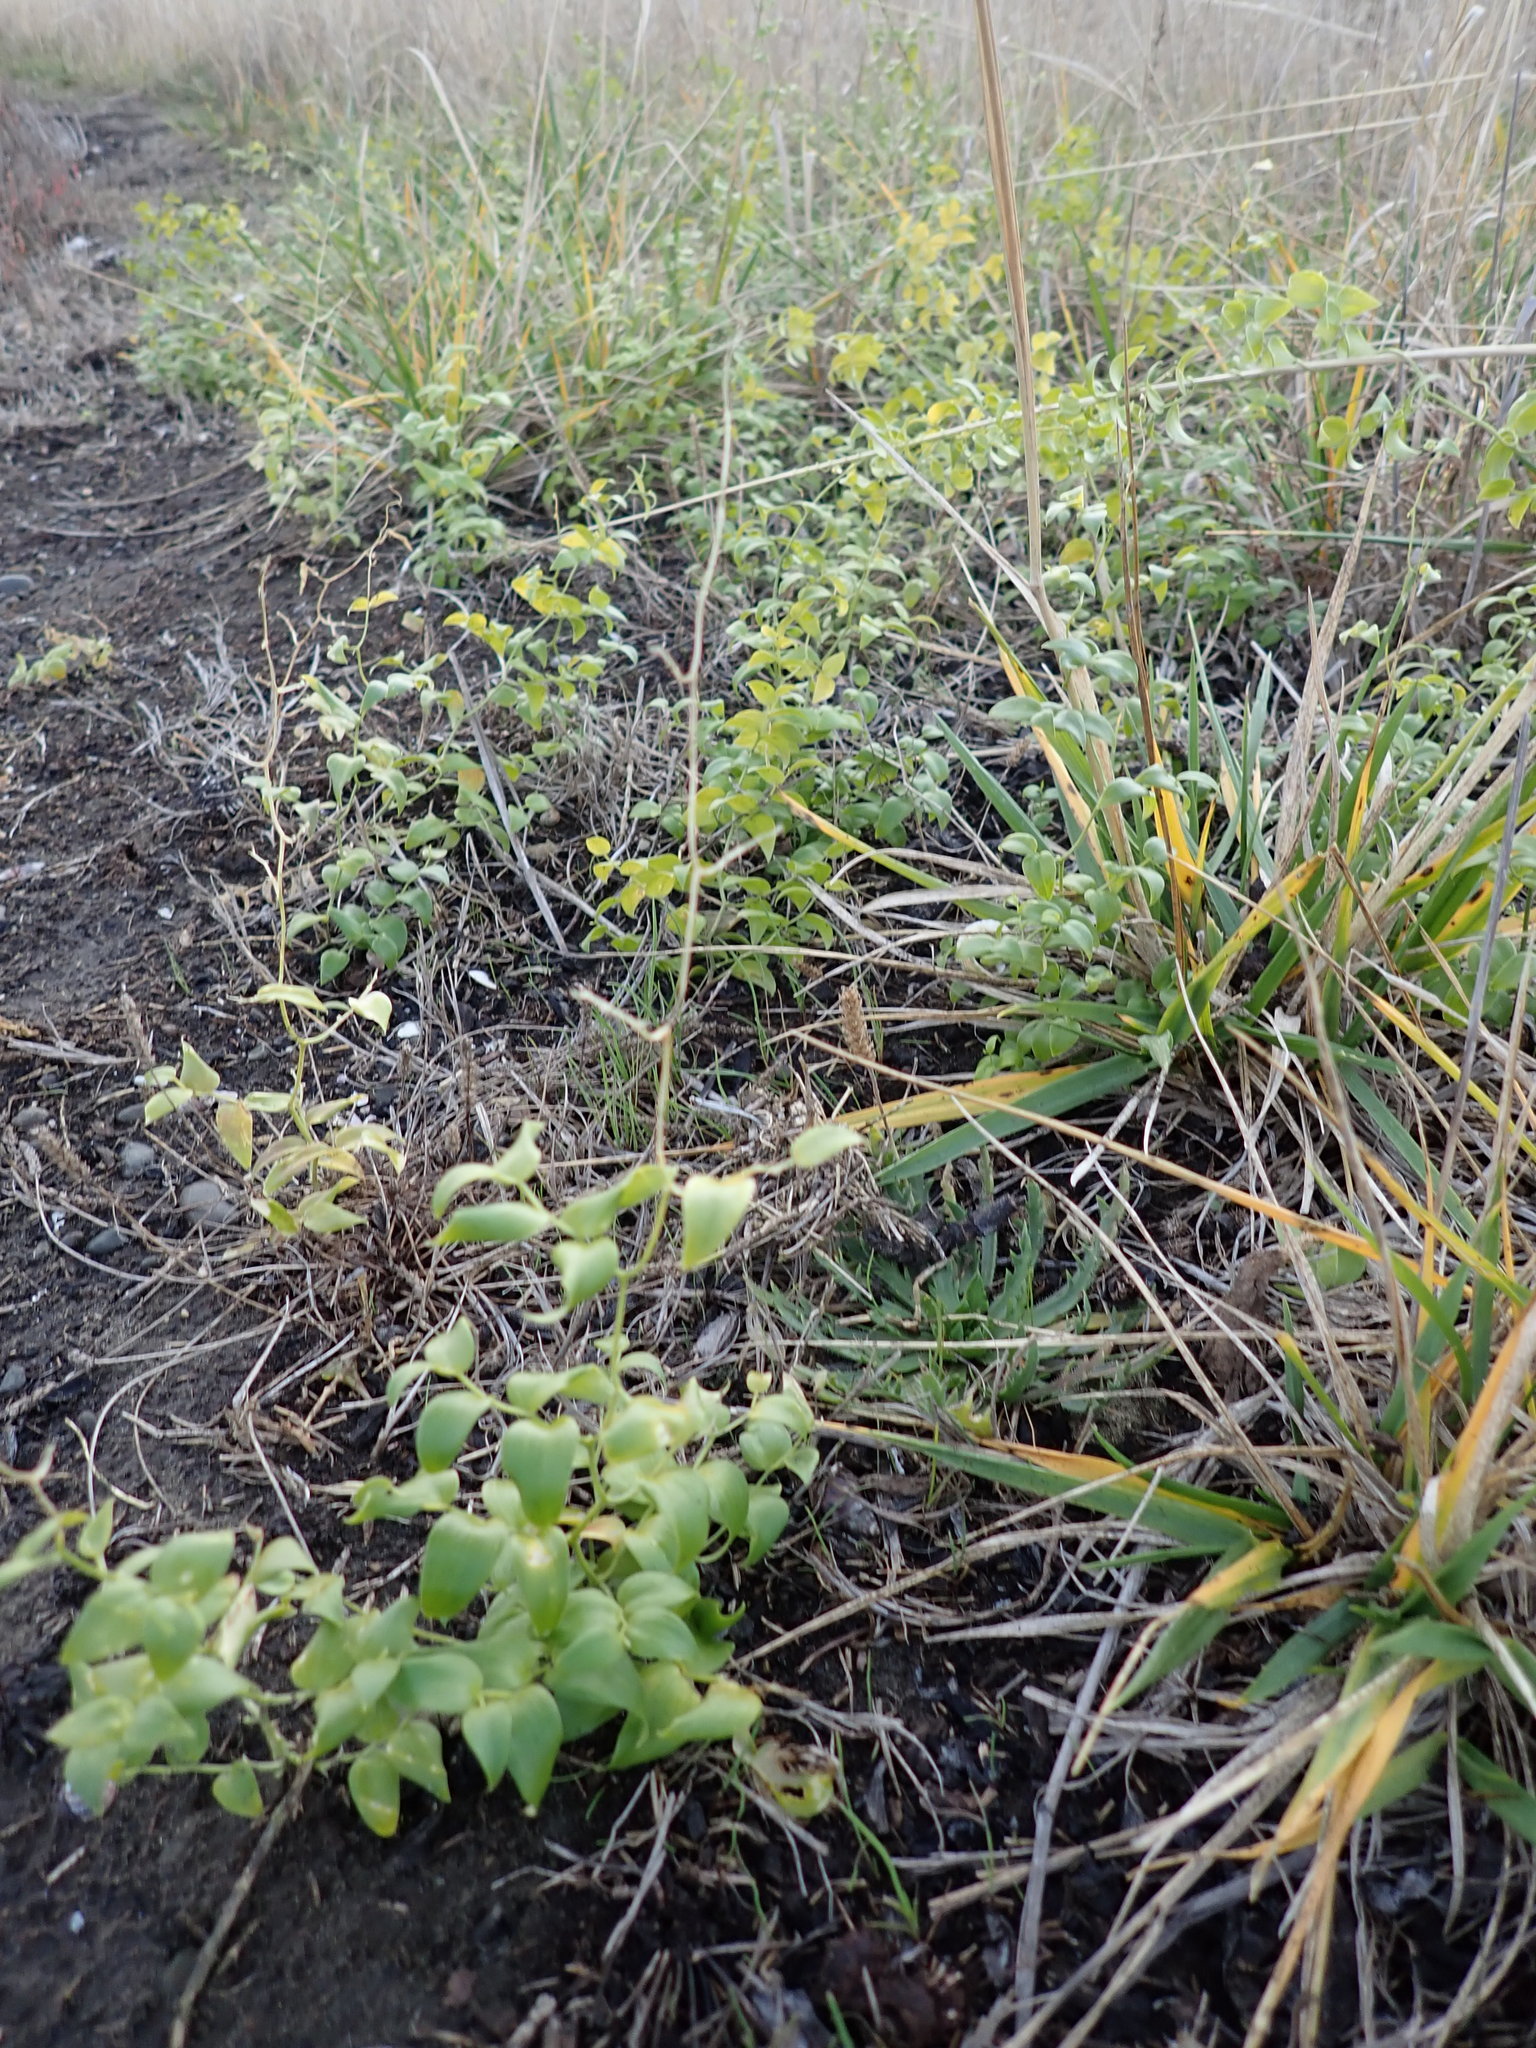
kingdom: Plantae
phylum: Tracheophyta
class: Liliopsida
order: Asparagales
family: Asparagaceae
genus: Asparagus
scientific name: Asparagus asparagoides
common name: African asparagus fern
